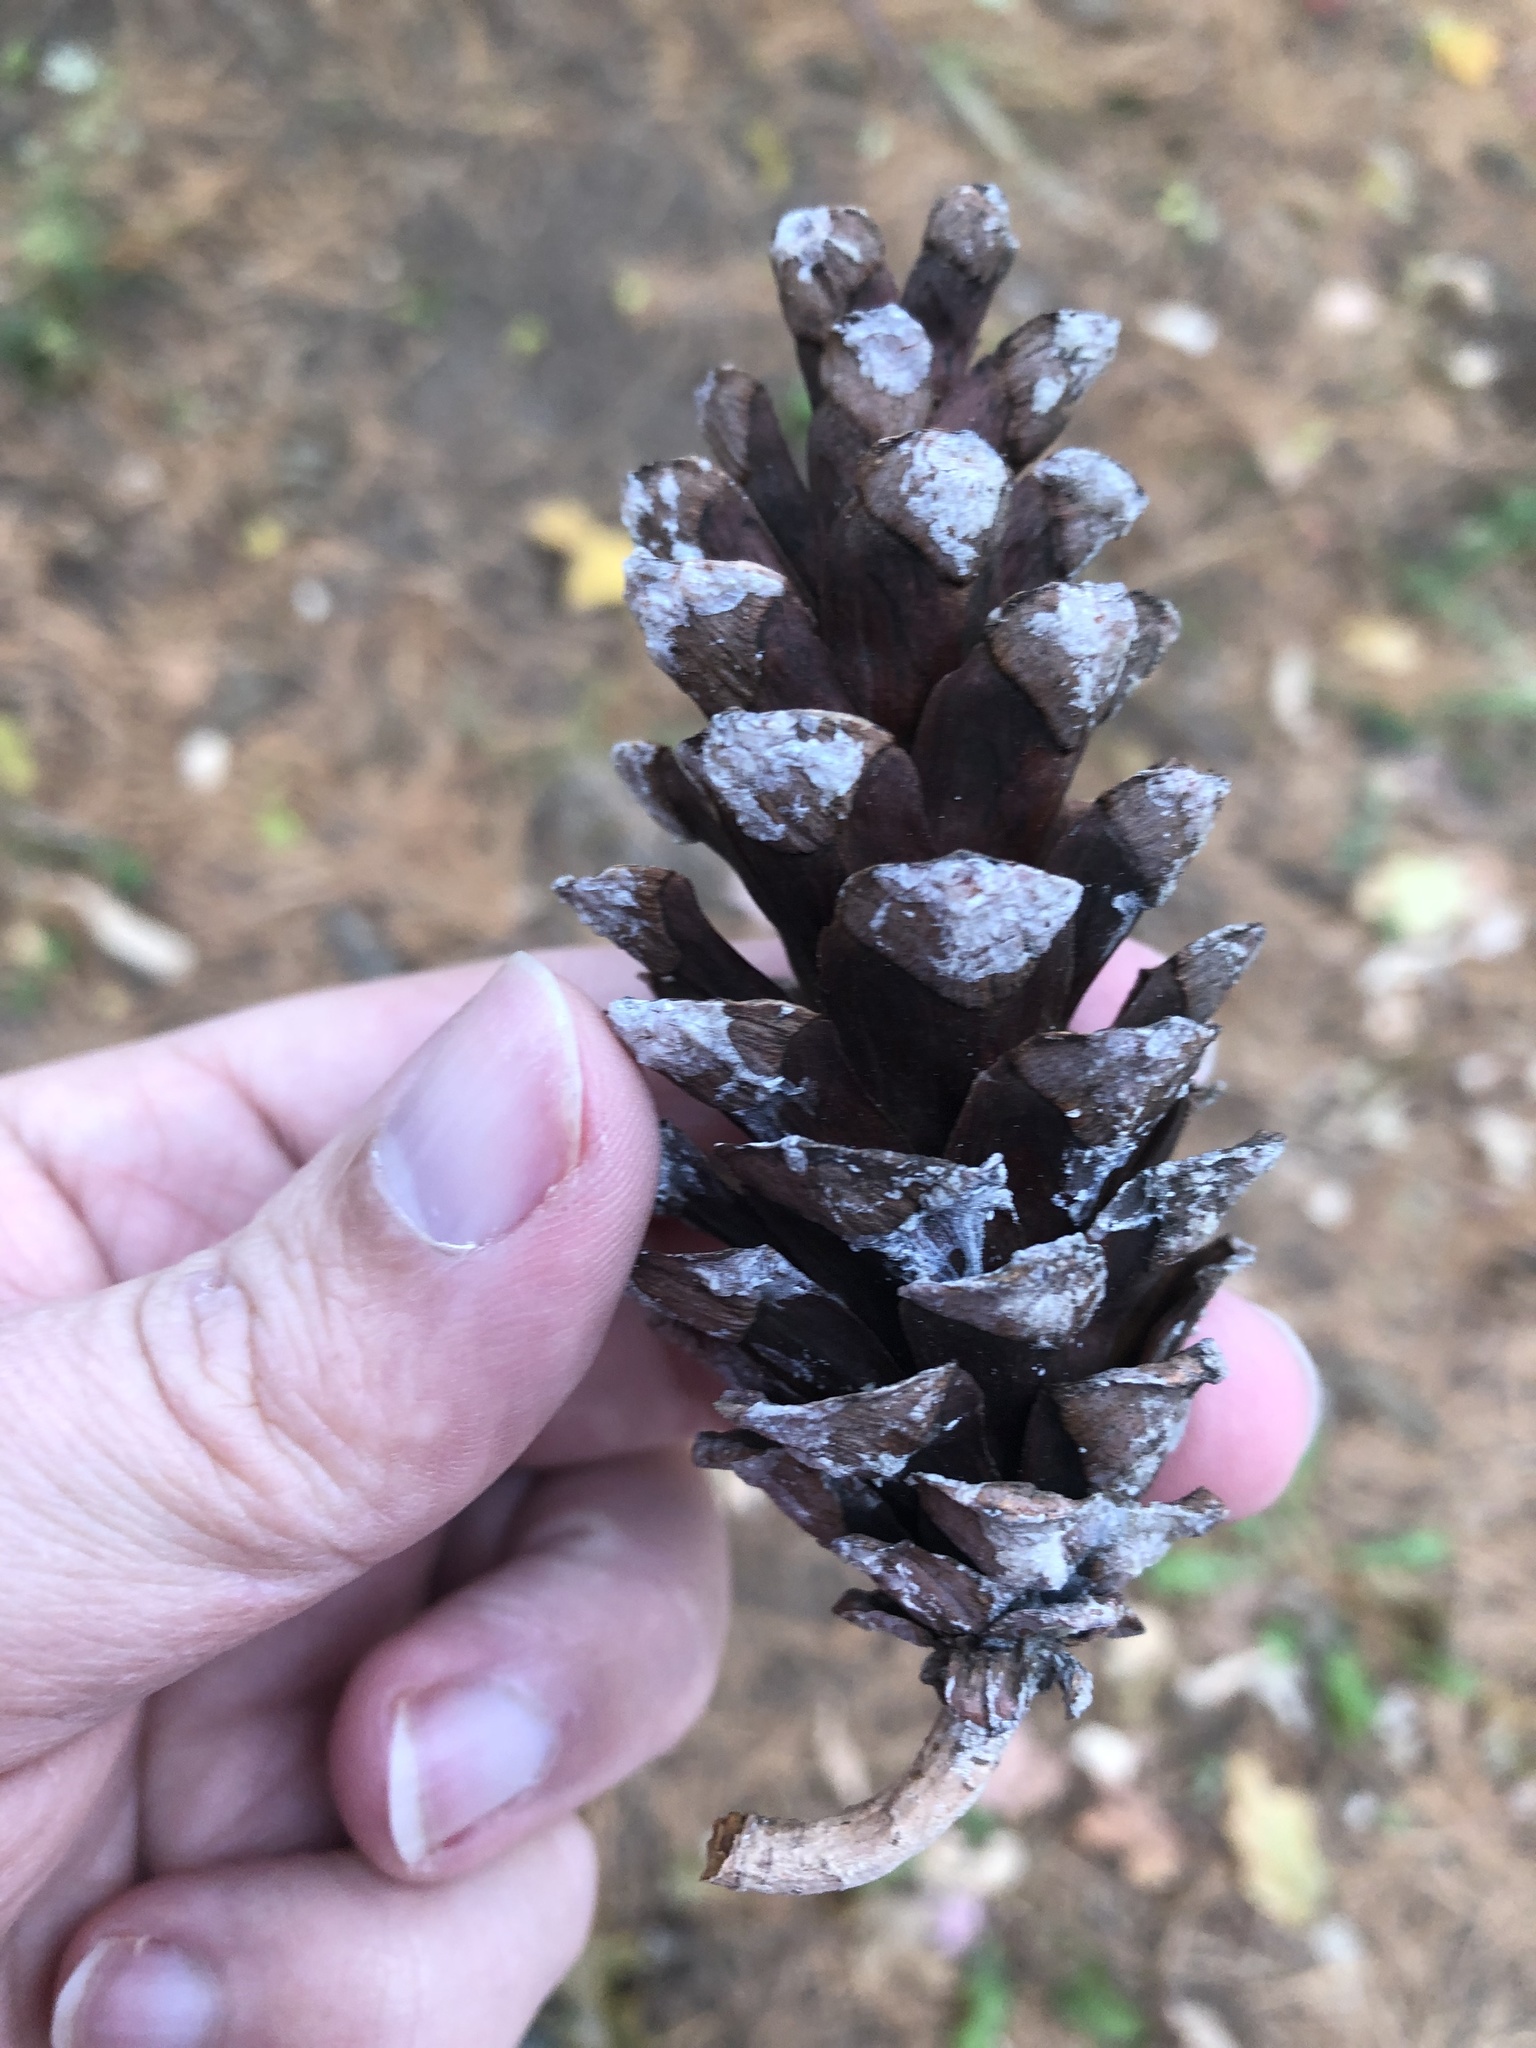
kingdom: Plantae
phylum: Tracheophyta
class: Pinopsida
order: Pinales
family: Pinaceae
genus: Pinus
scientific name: Pinus strobus
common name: Weymouth pine
